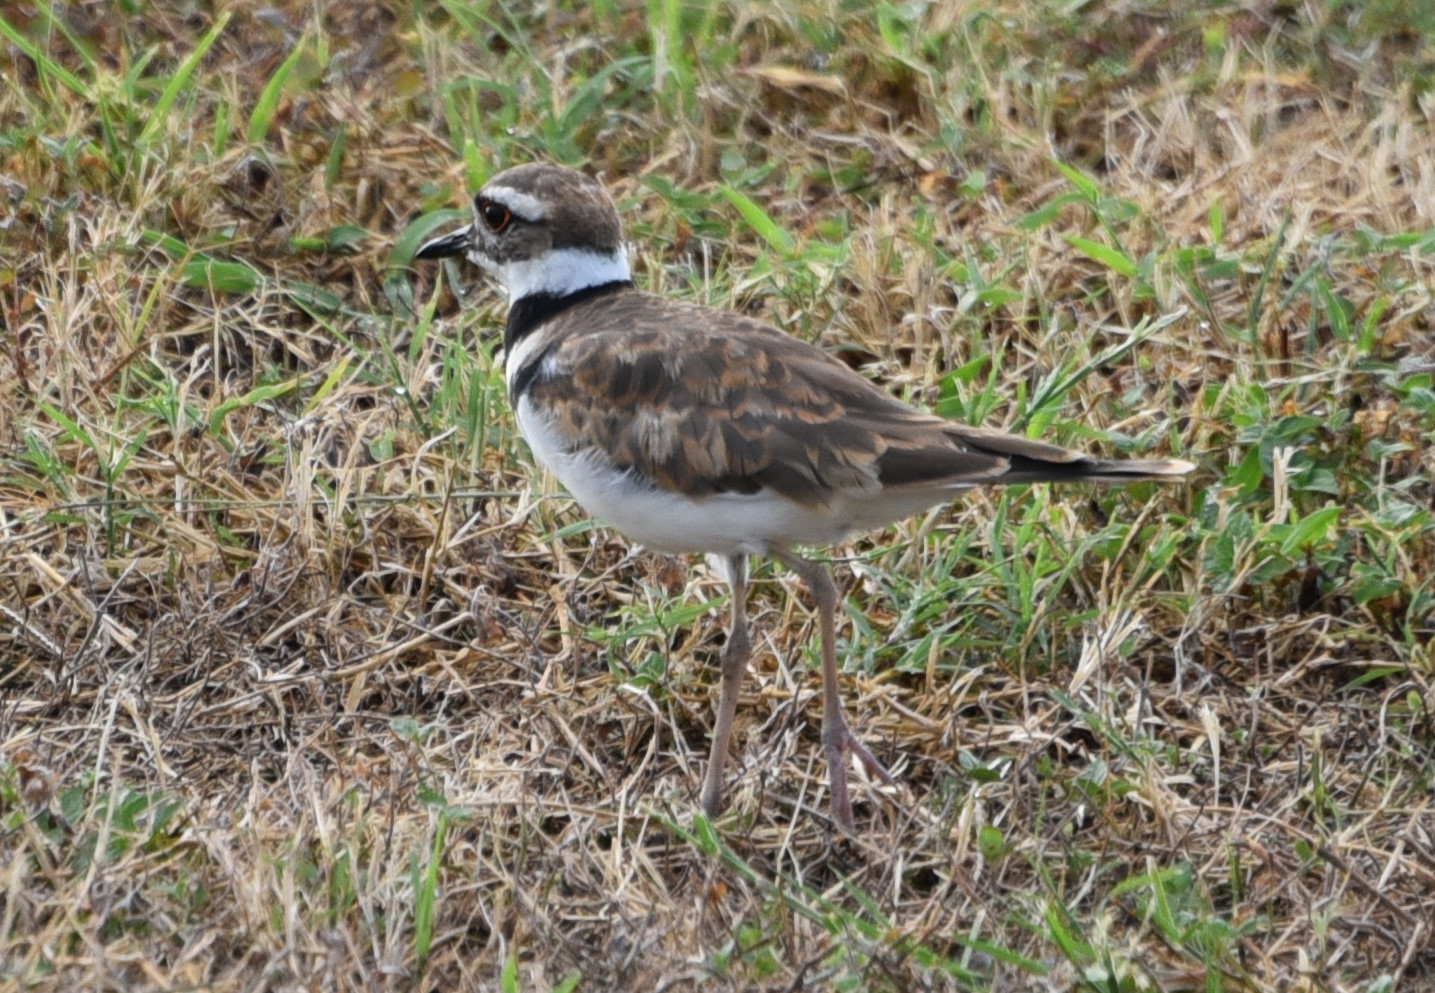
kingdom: Animalia
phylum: Chordata
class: Aves
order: Charadriiformes
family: Charadriidae
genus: Charadrius
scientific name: Charadrius vociferus
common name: Killdeer
